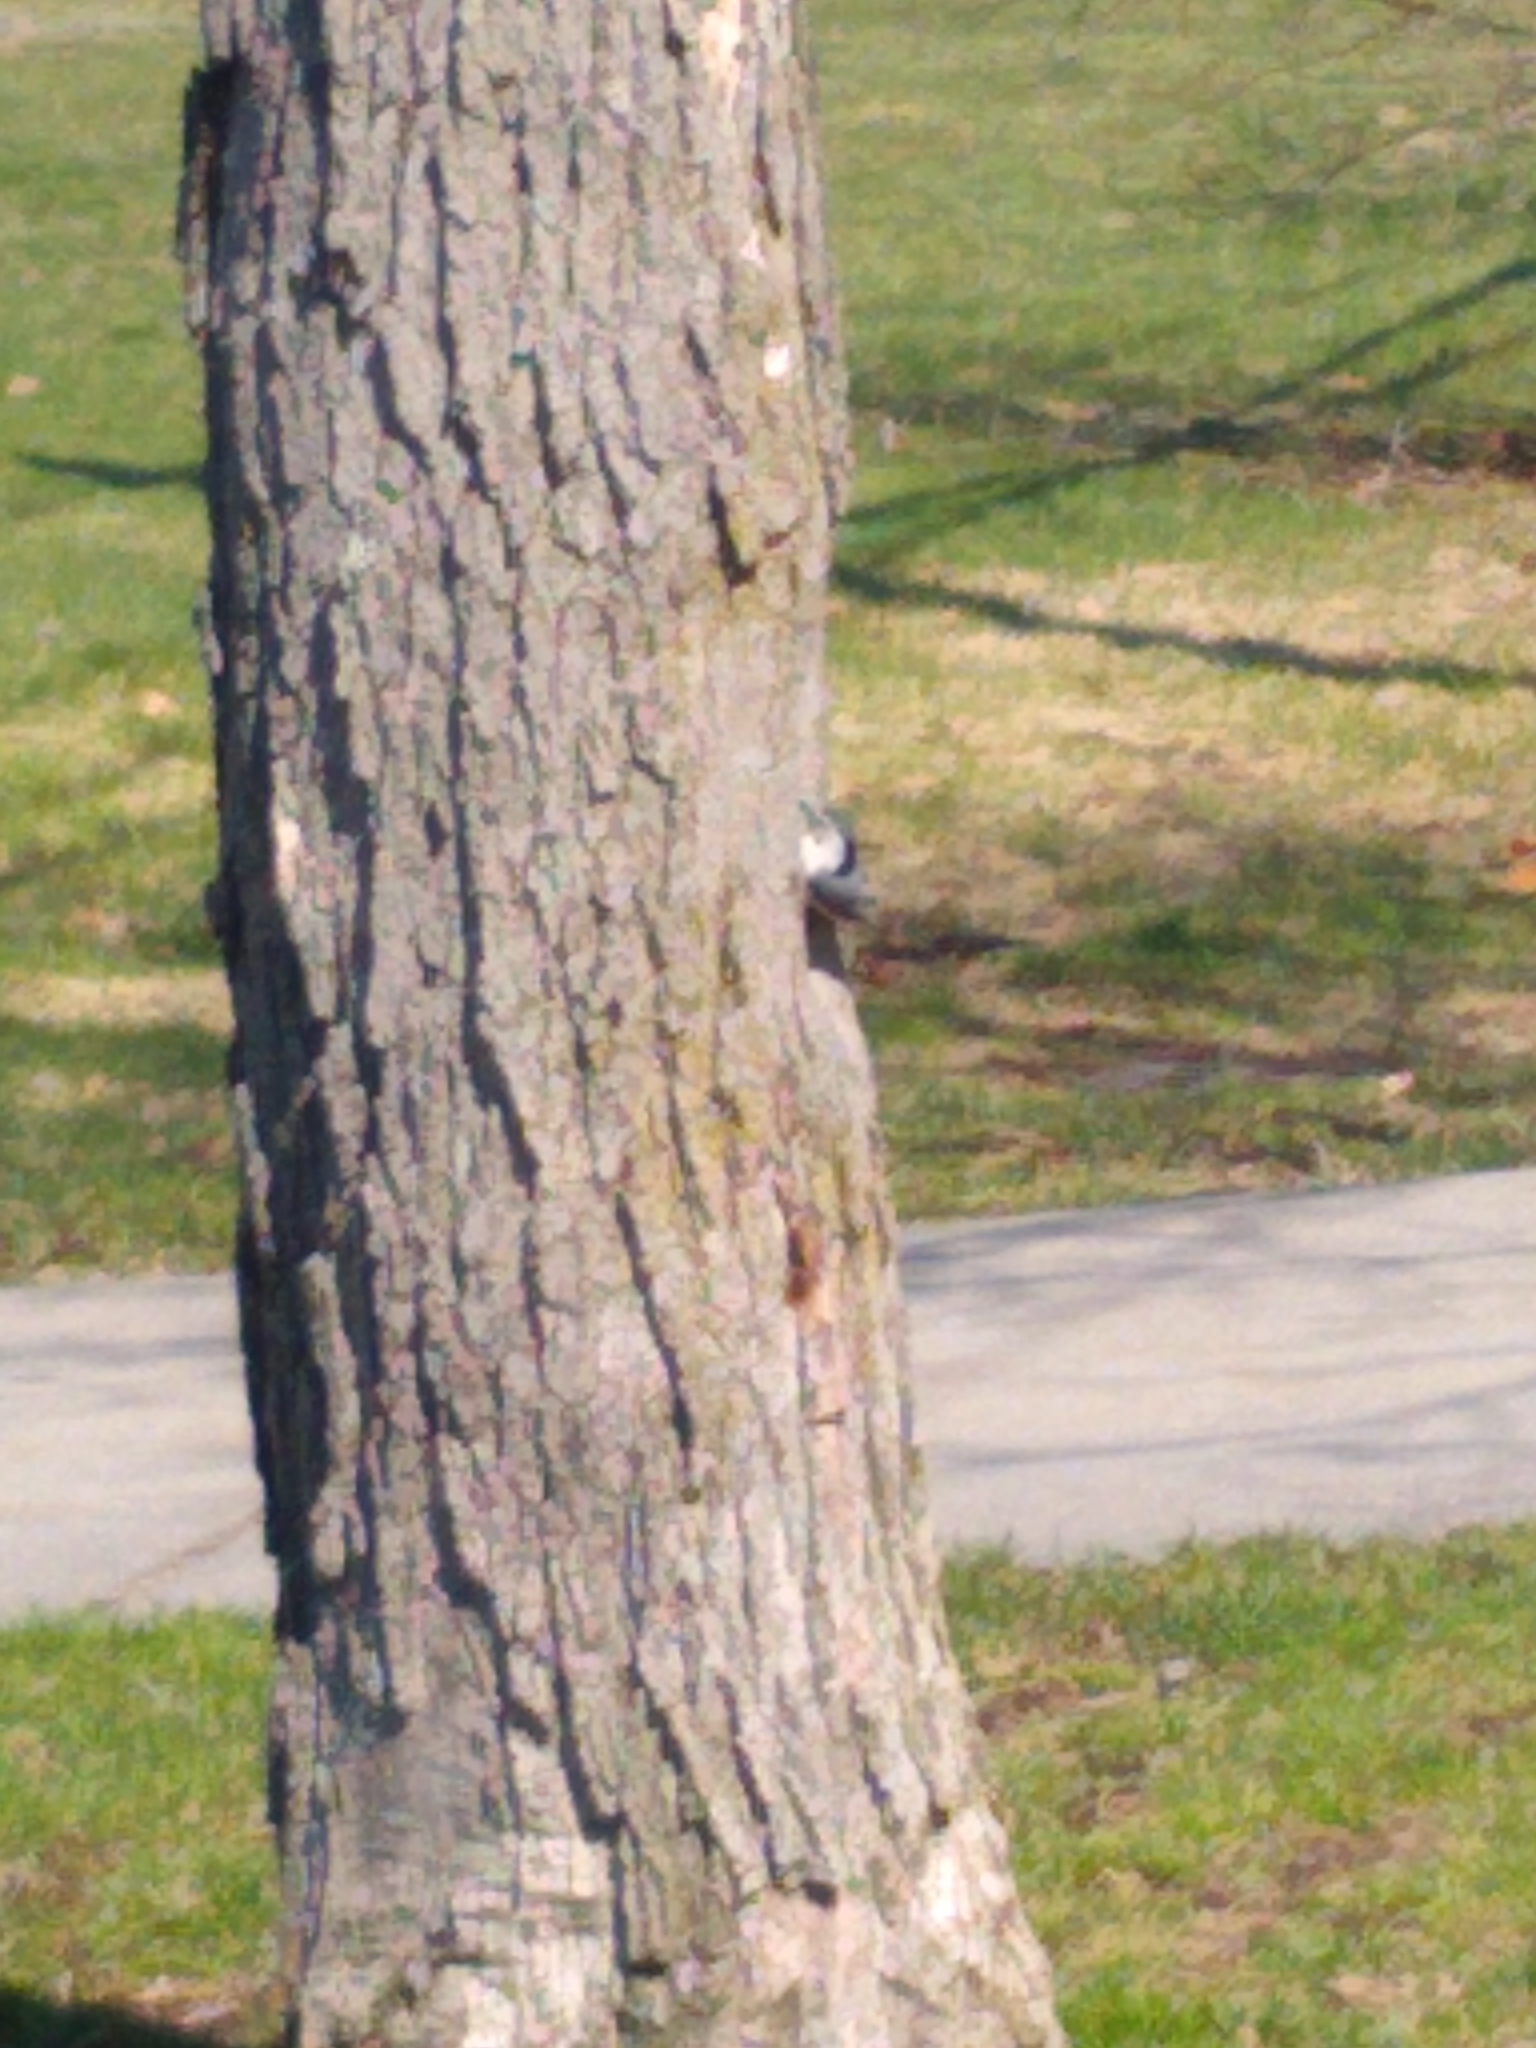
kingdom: Animalia
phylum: Chordata
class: Aves
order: Passeriformes
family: Sittidae
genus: Sitta
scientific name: Sitta carolinensis
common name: White-breasted nuthatch
